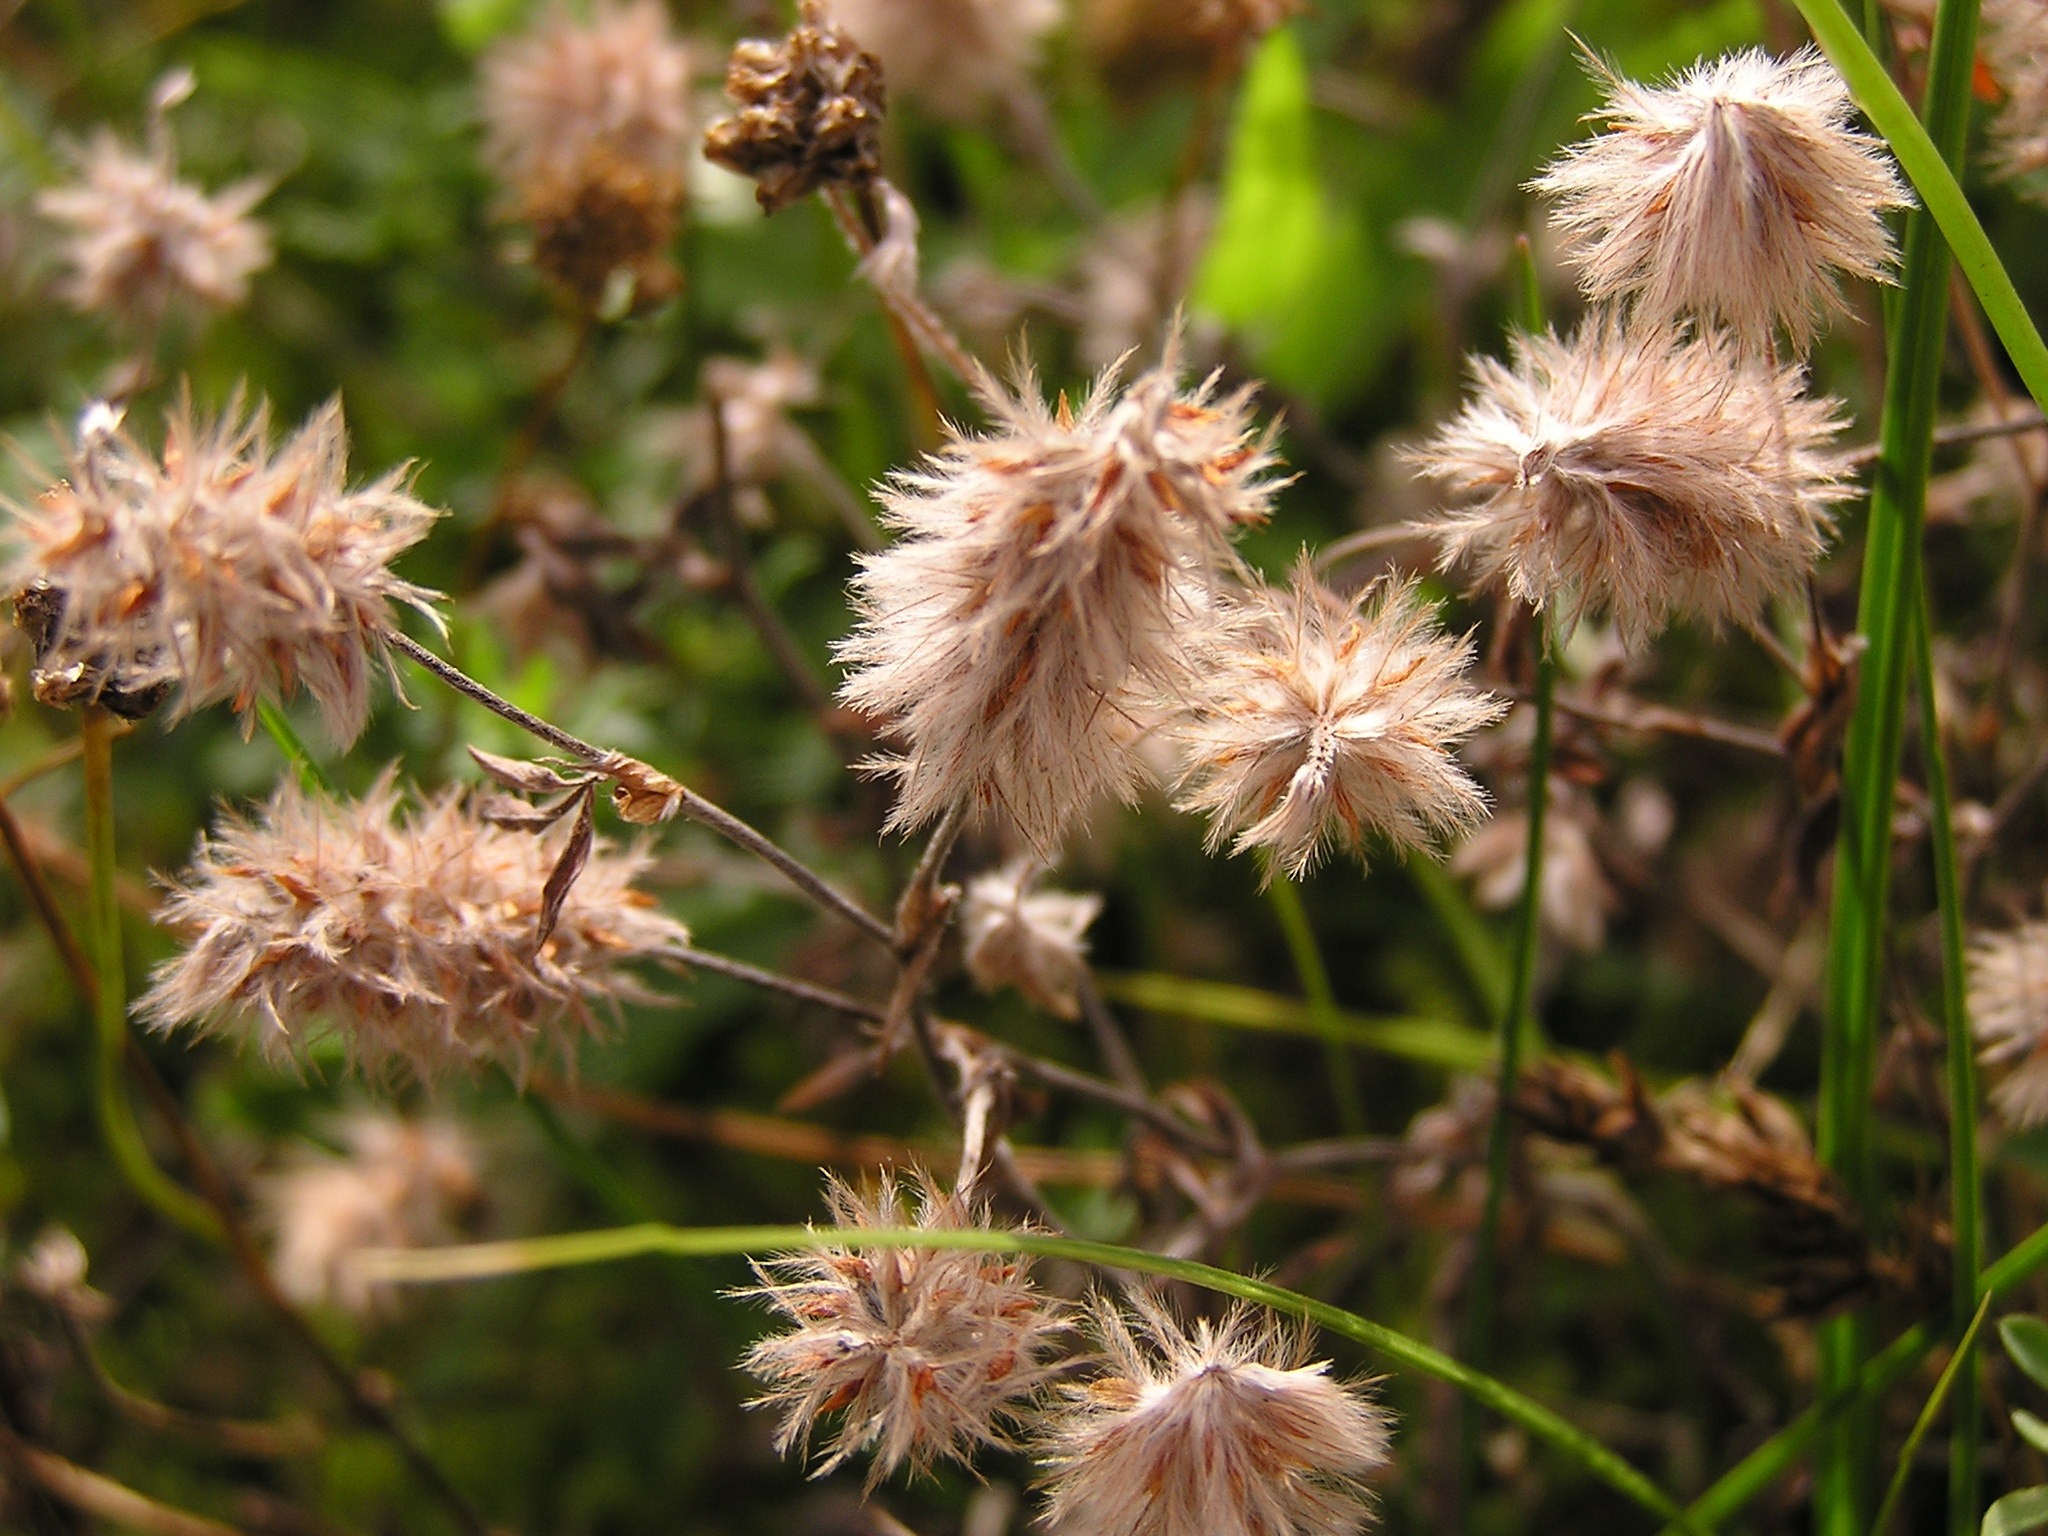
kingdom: Plantae
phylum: Tracheophyta
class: Magnoliopsida
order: Fabales
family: Fabaceae
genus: Trifolium
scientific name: Trifolium arvense
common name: Hare's-foot clover
